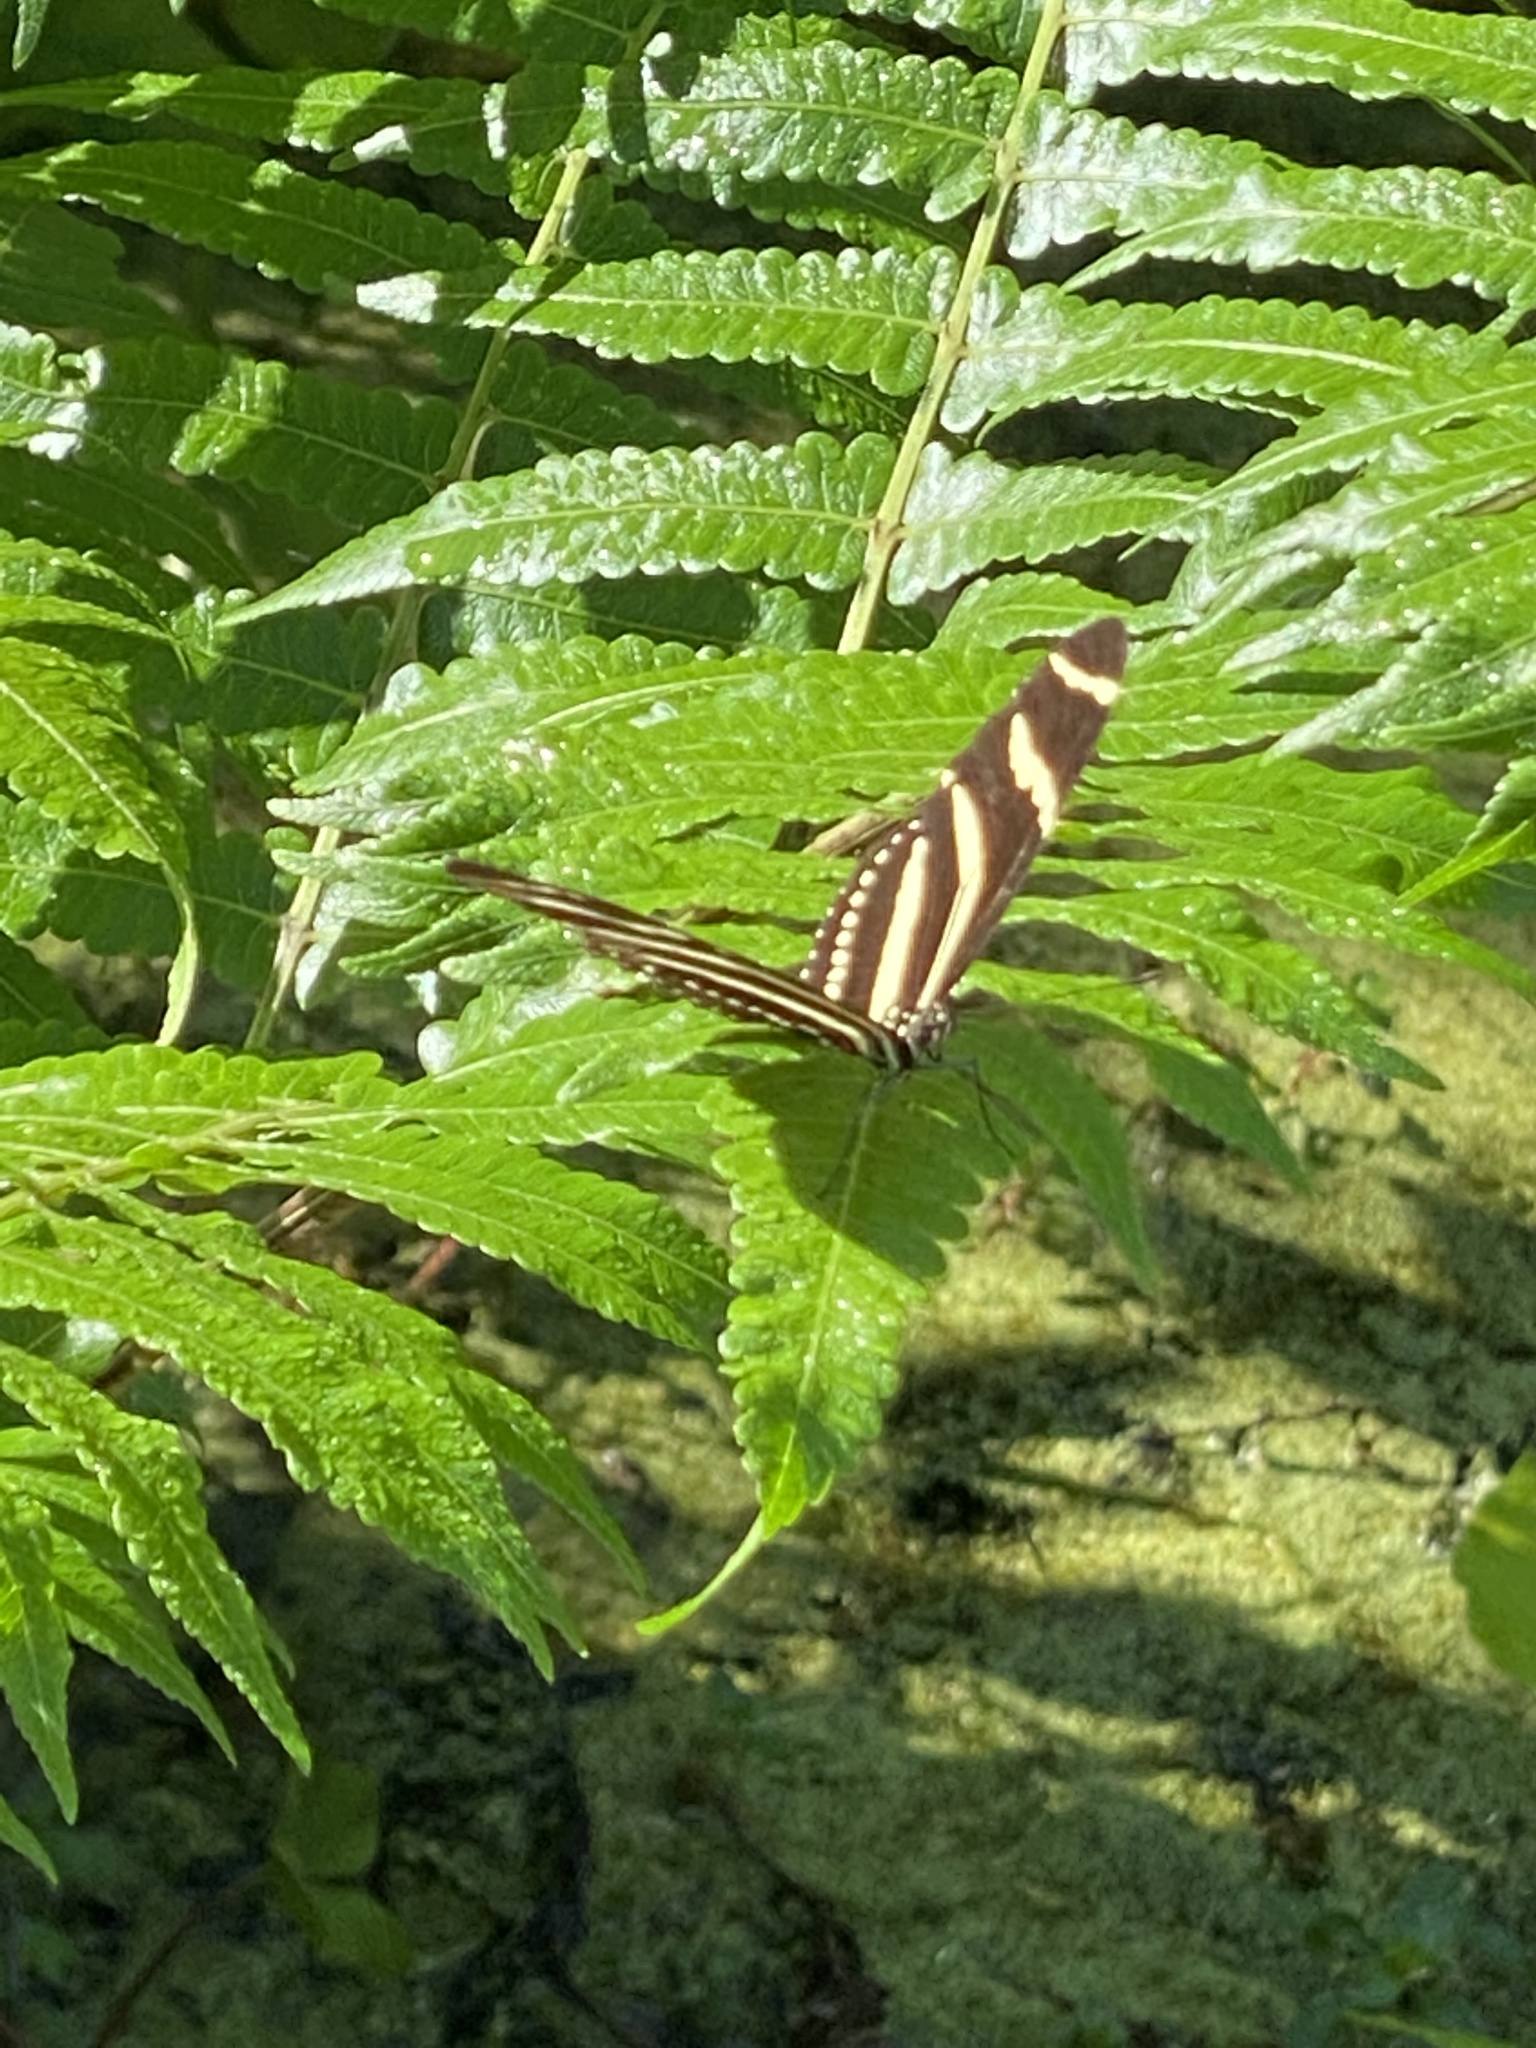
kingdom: Animalia
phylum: Arthropoda
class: Insecta
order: Lepidoptera
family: Nymphalidae
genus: Heliconius
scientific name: Heliconius charithonia
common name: Zebra long wing
